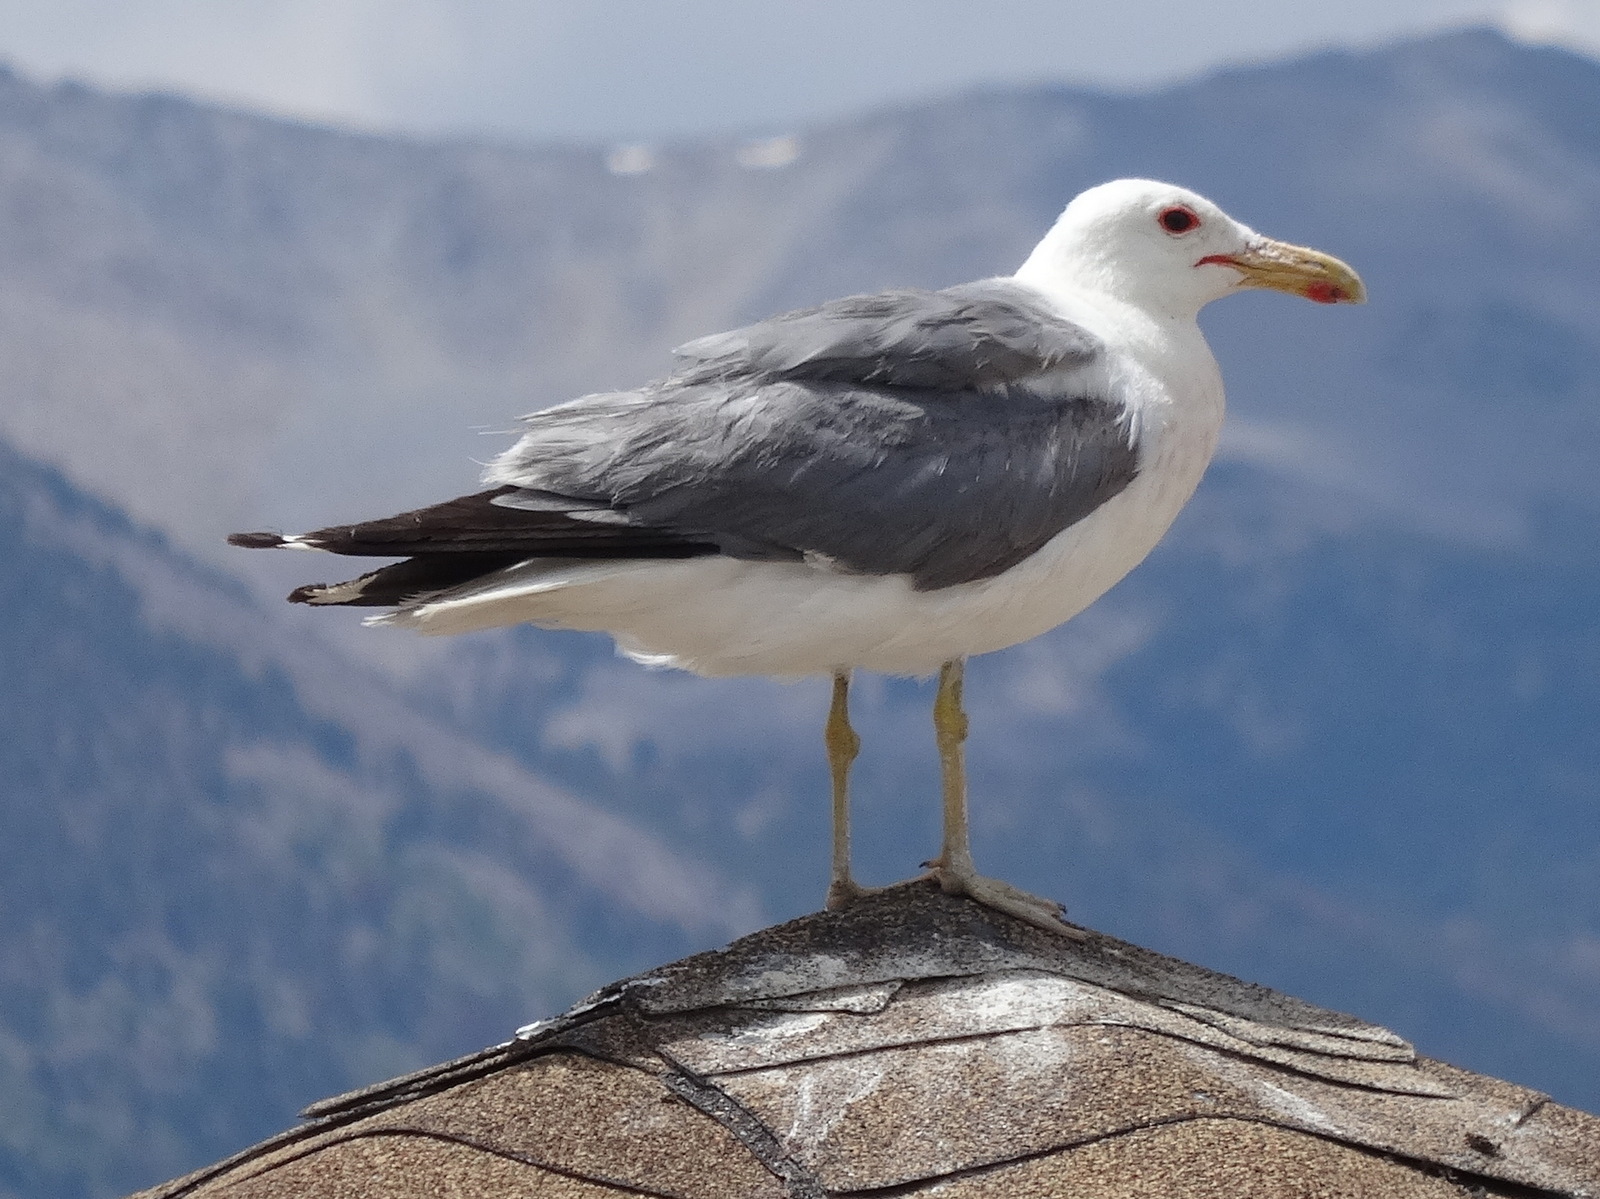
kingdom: Animalia
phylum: Chordata
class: Aves
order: Charadriiformes
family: Laridae
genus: Larus
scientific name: Larus californicus
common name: California gull
